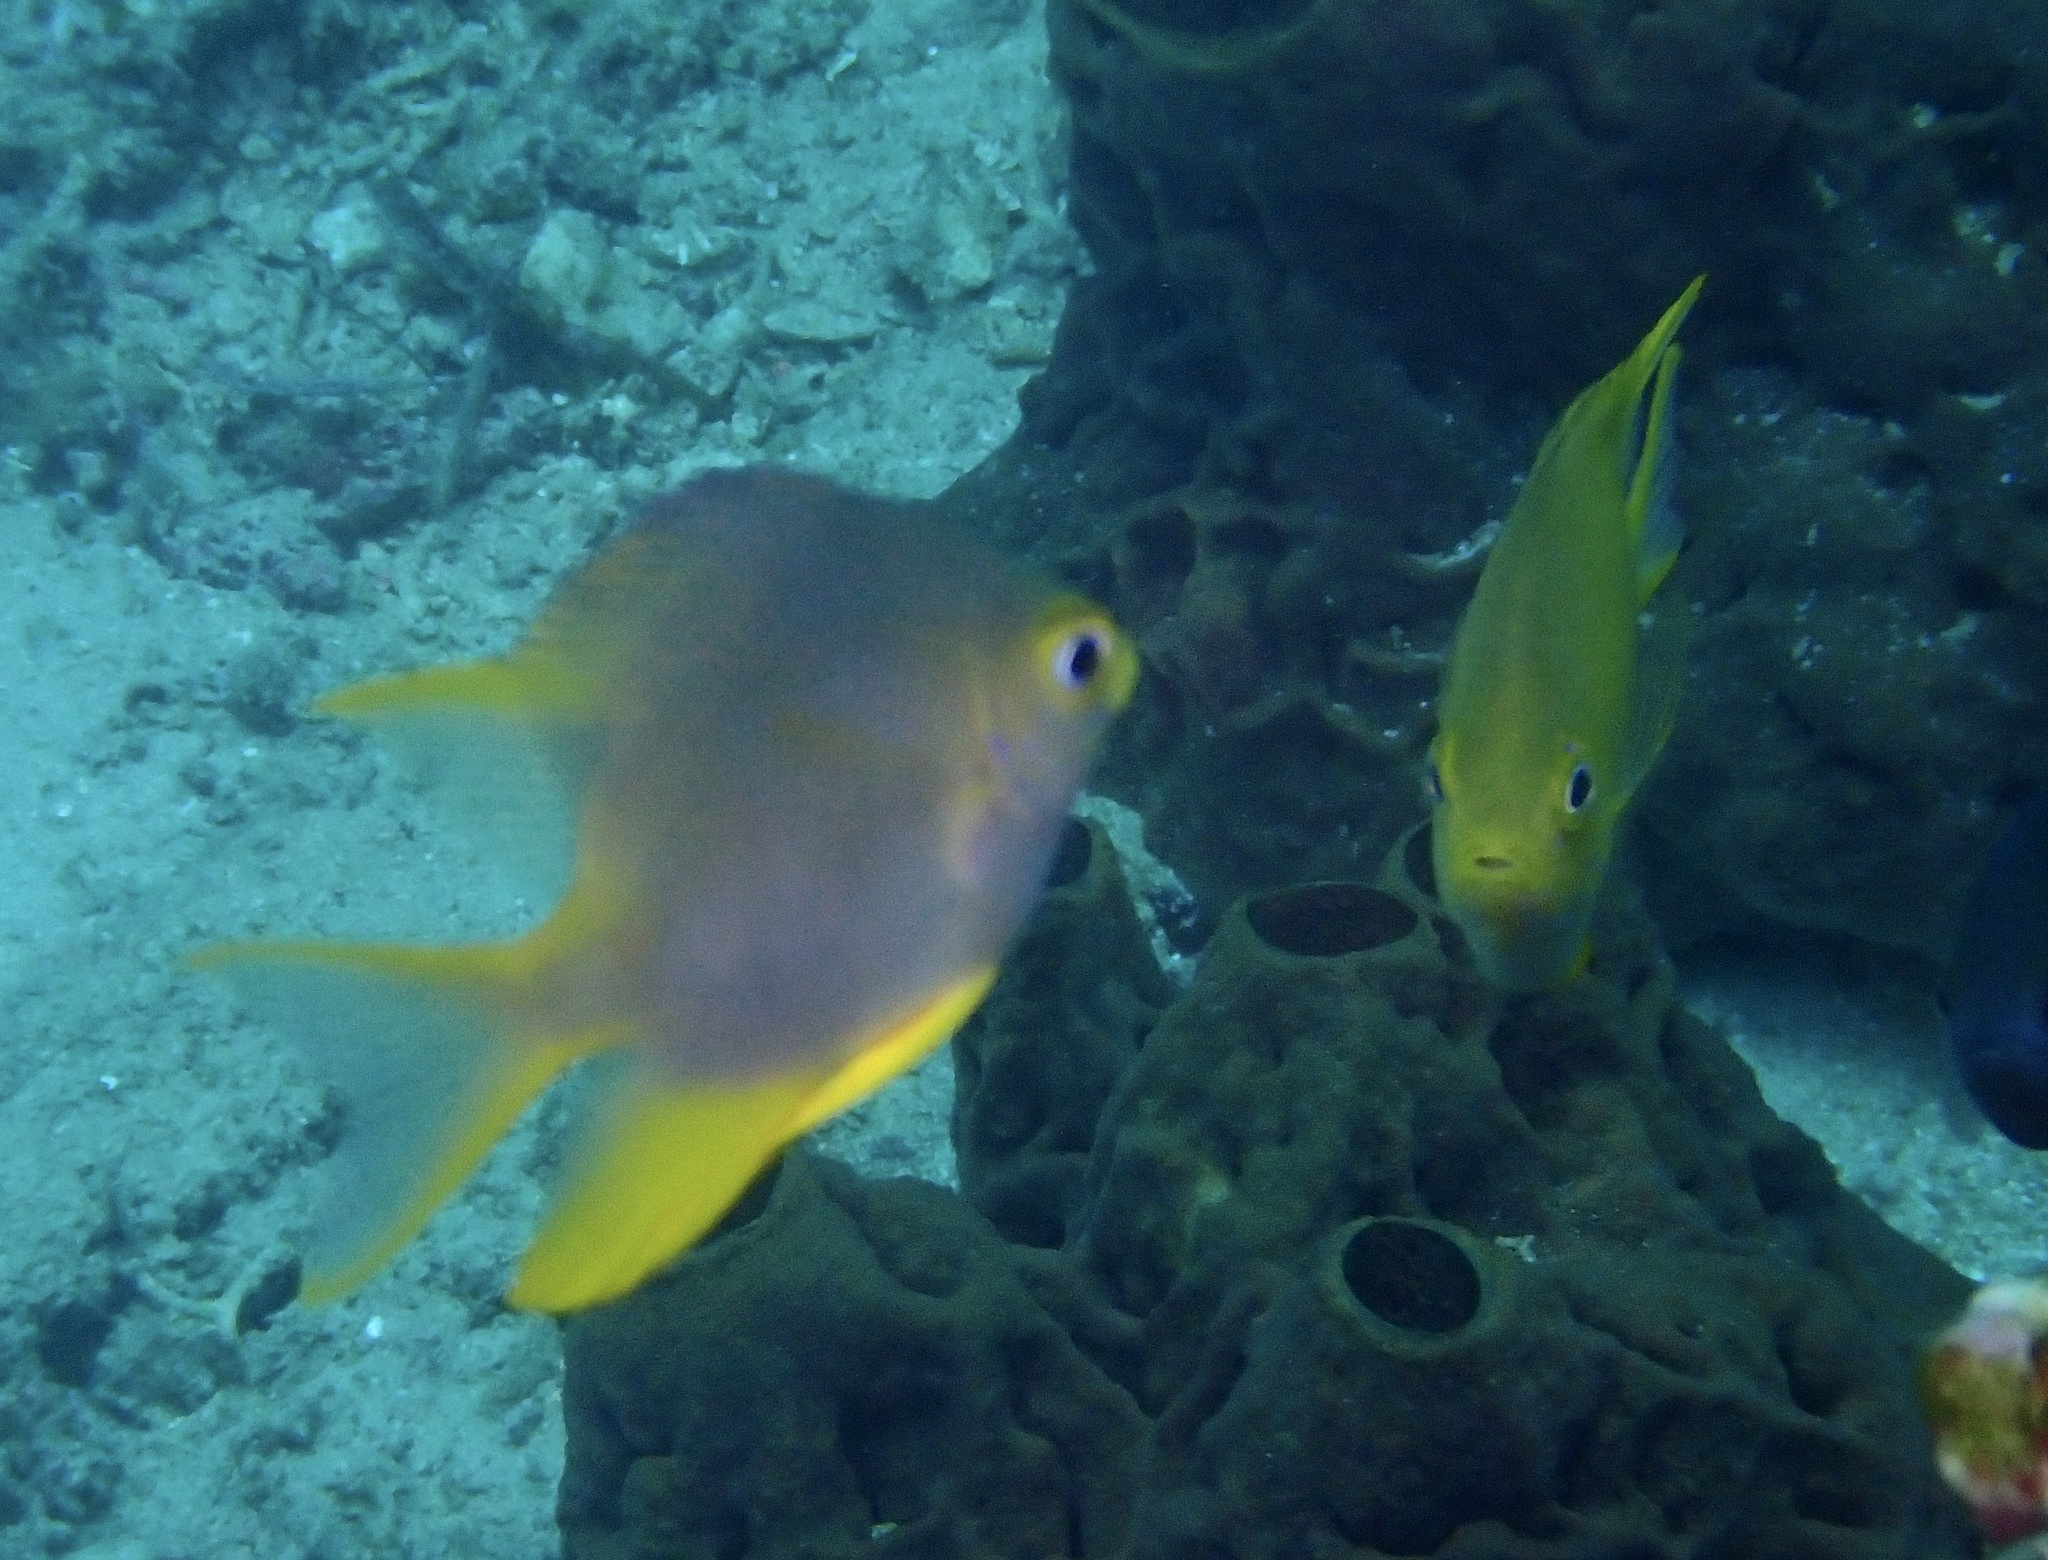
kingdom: Animalia
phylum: Chordata
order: Perciformes
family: Pomacentridae
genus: Amblyglyphidodon
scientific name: Amblyglyphidodon aureus
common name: Golden damsel
